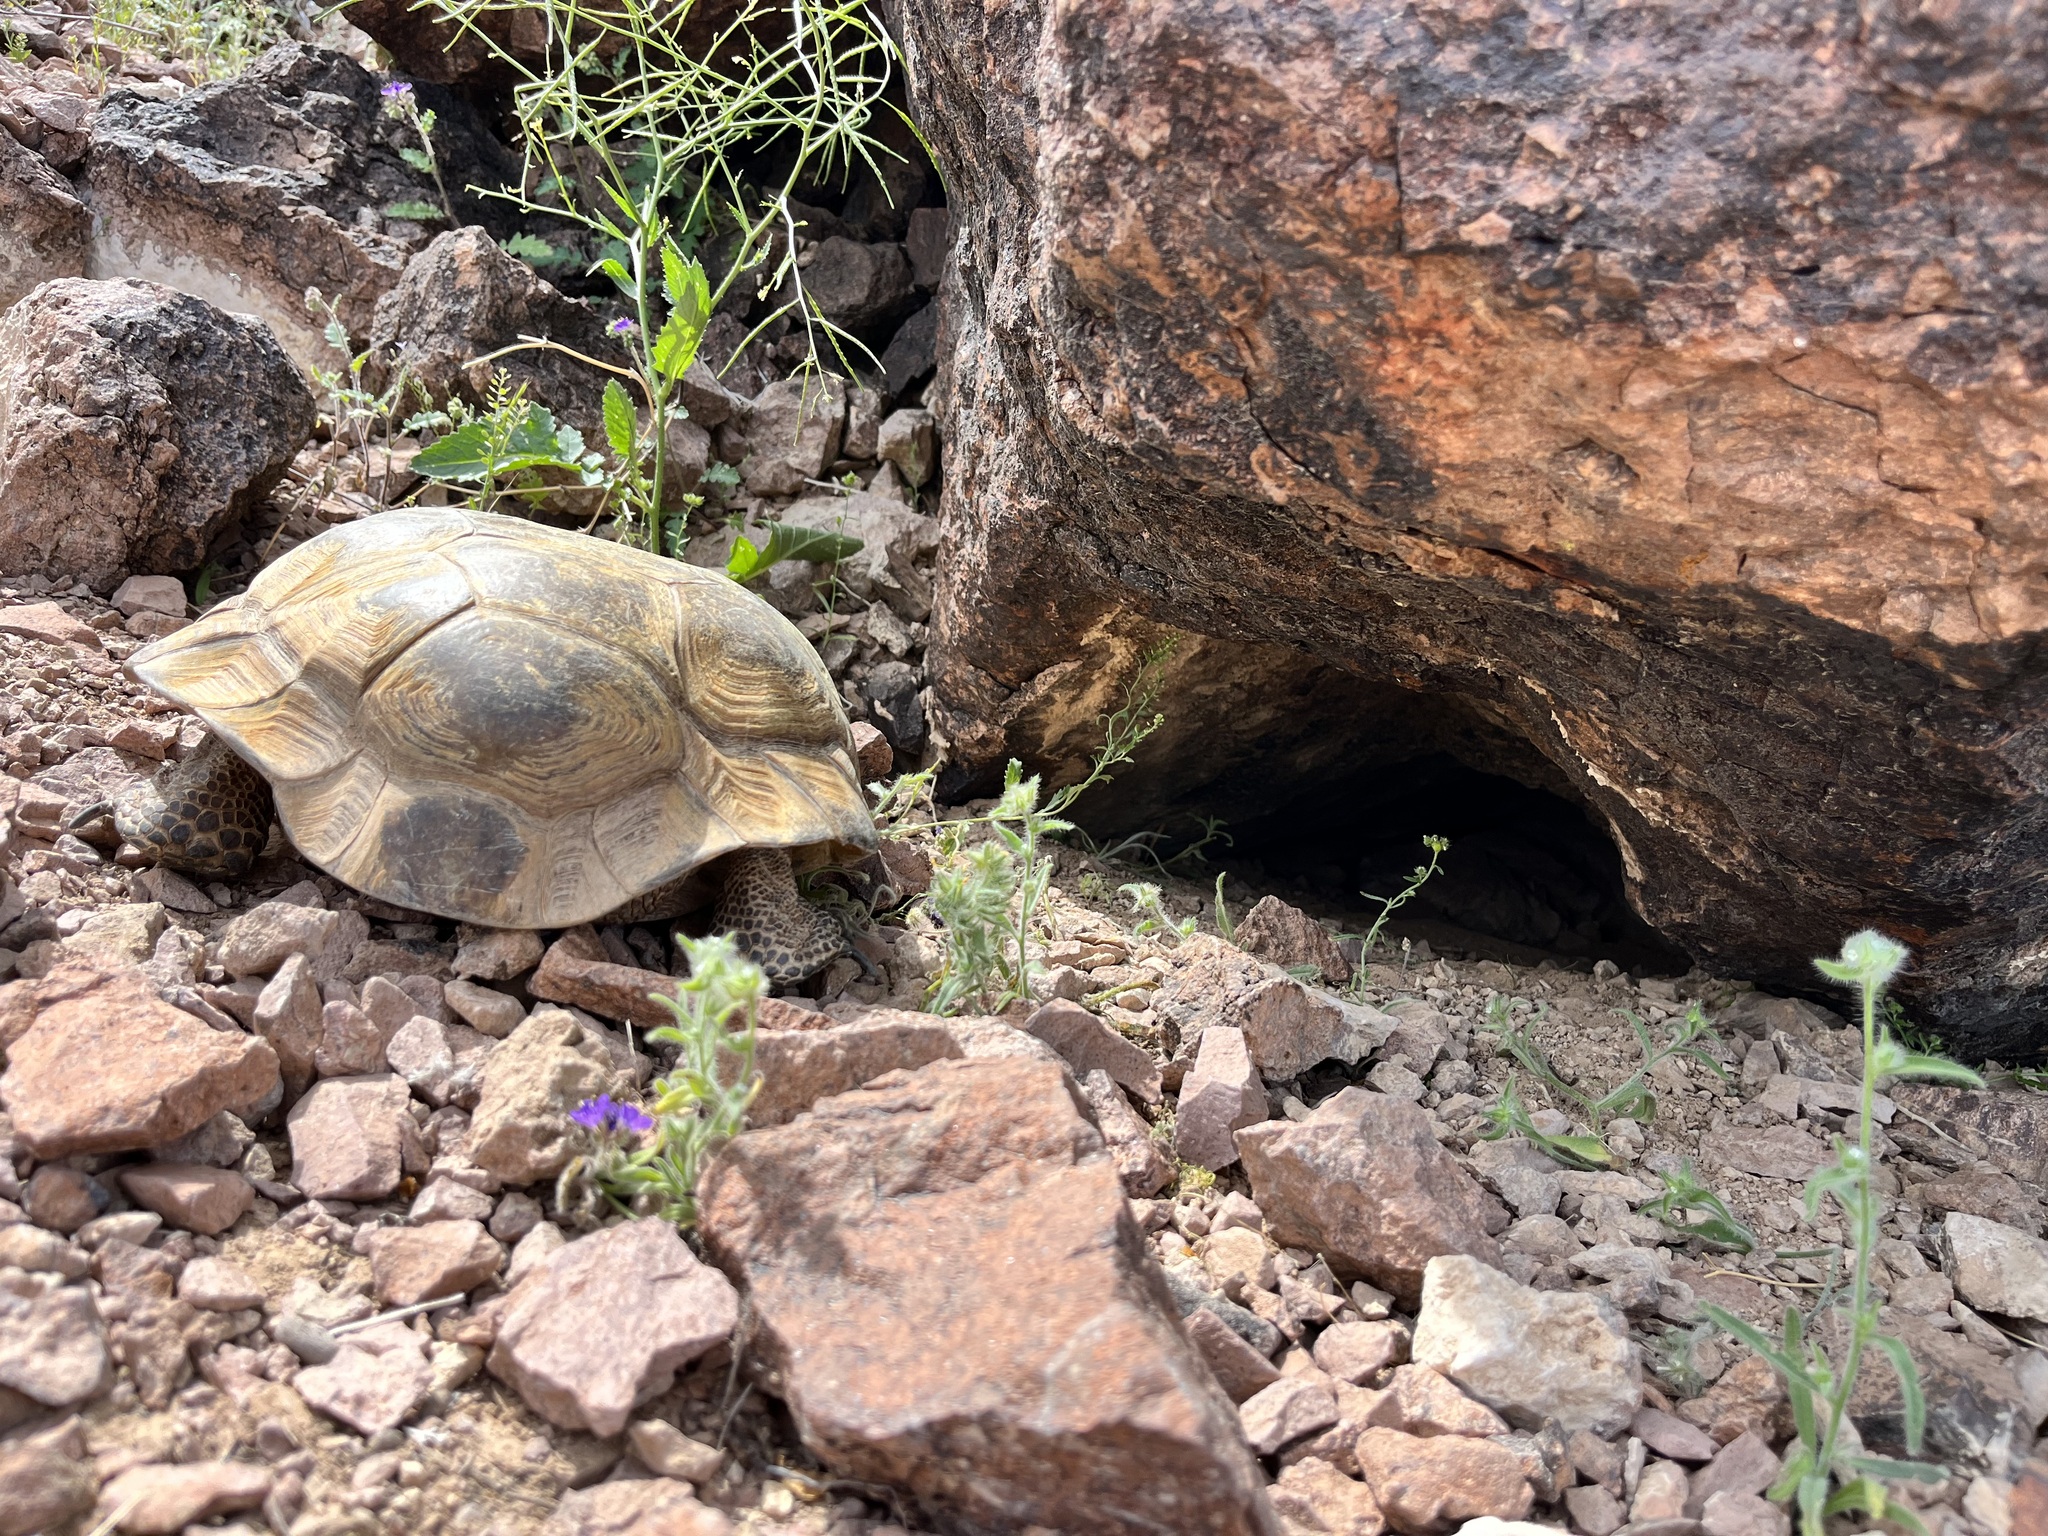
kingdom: Animalia
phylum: Chordata
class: Testudines
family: Testudinidae
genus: Gopherus
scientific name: Gopherus morafkai
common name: Sonoran desert tortoise
